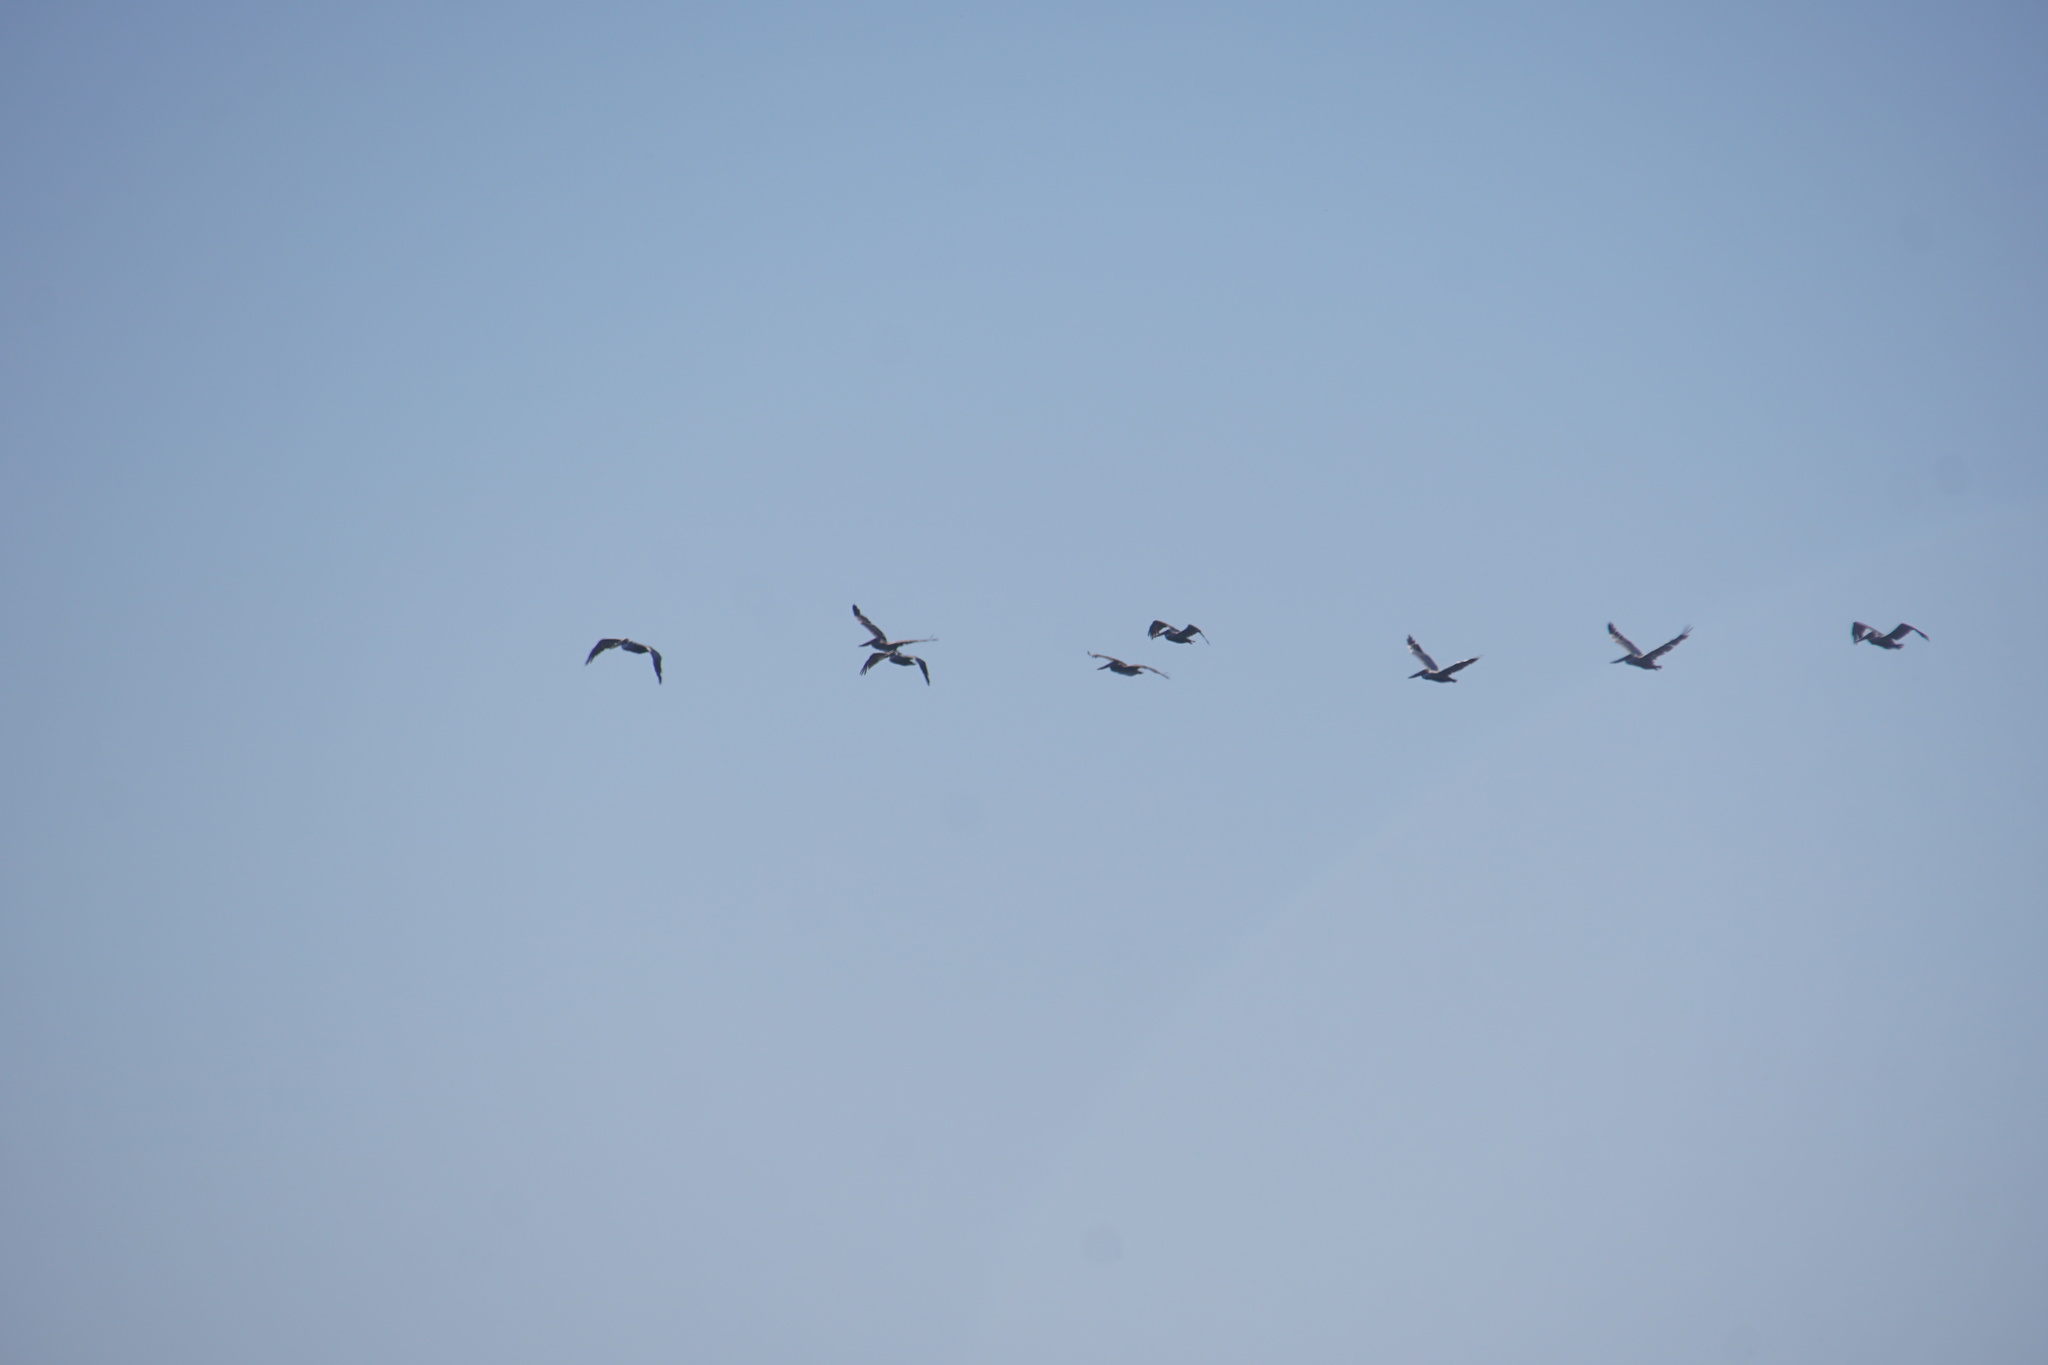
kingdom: Animalia
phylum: Chordata
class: Aves
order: Pelecaniformes
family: Pelecanidae
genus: Pelecanus
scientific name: Pelecanus occidentalis
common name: Brown pelican
